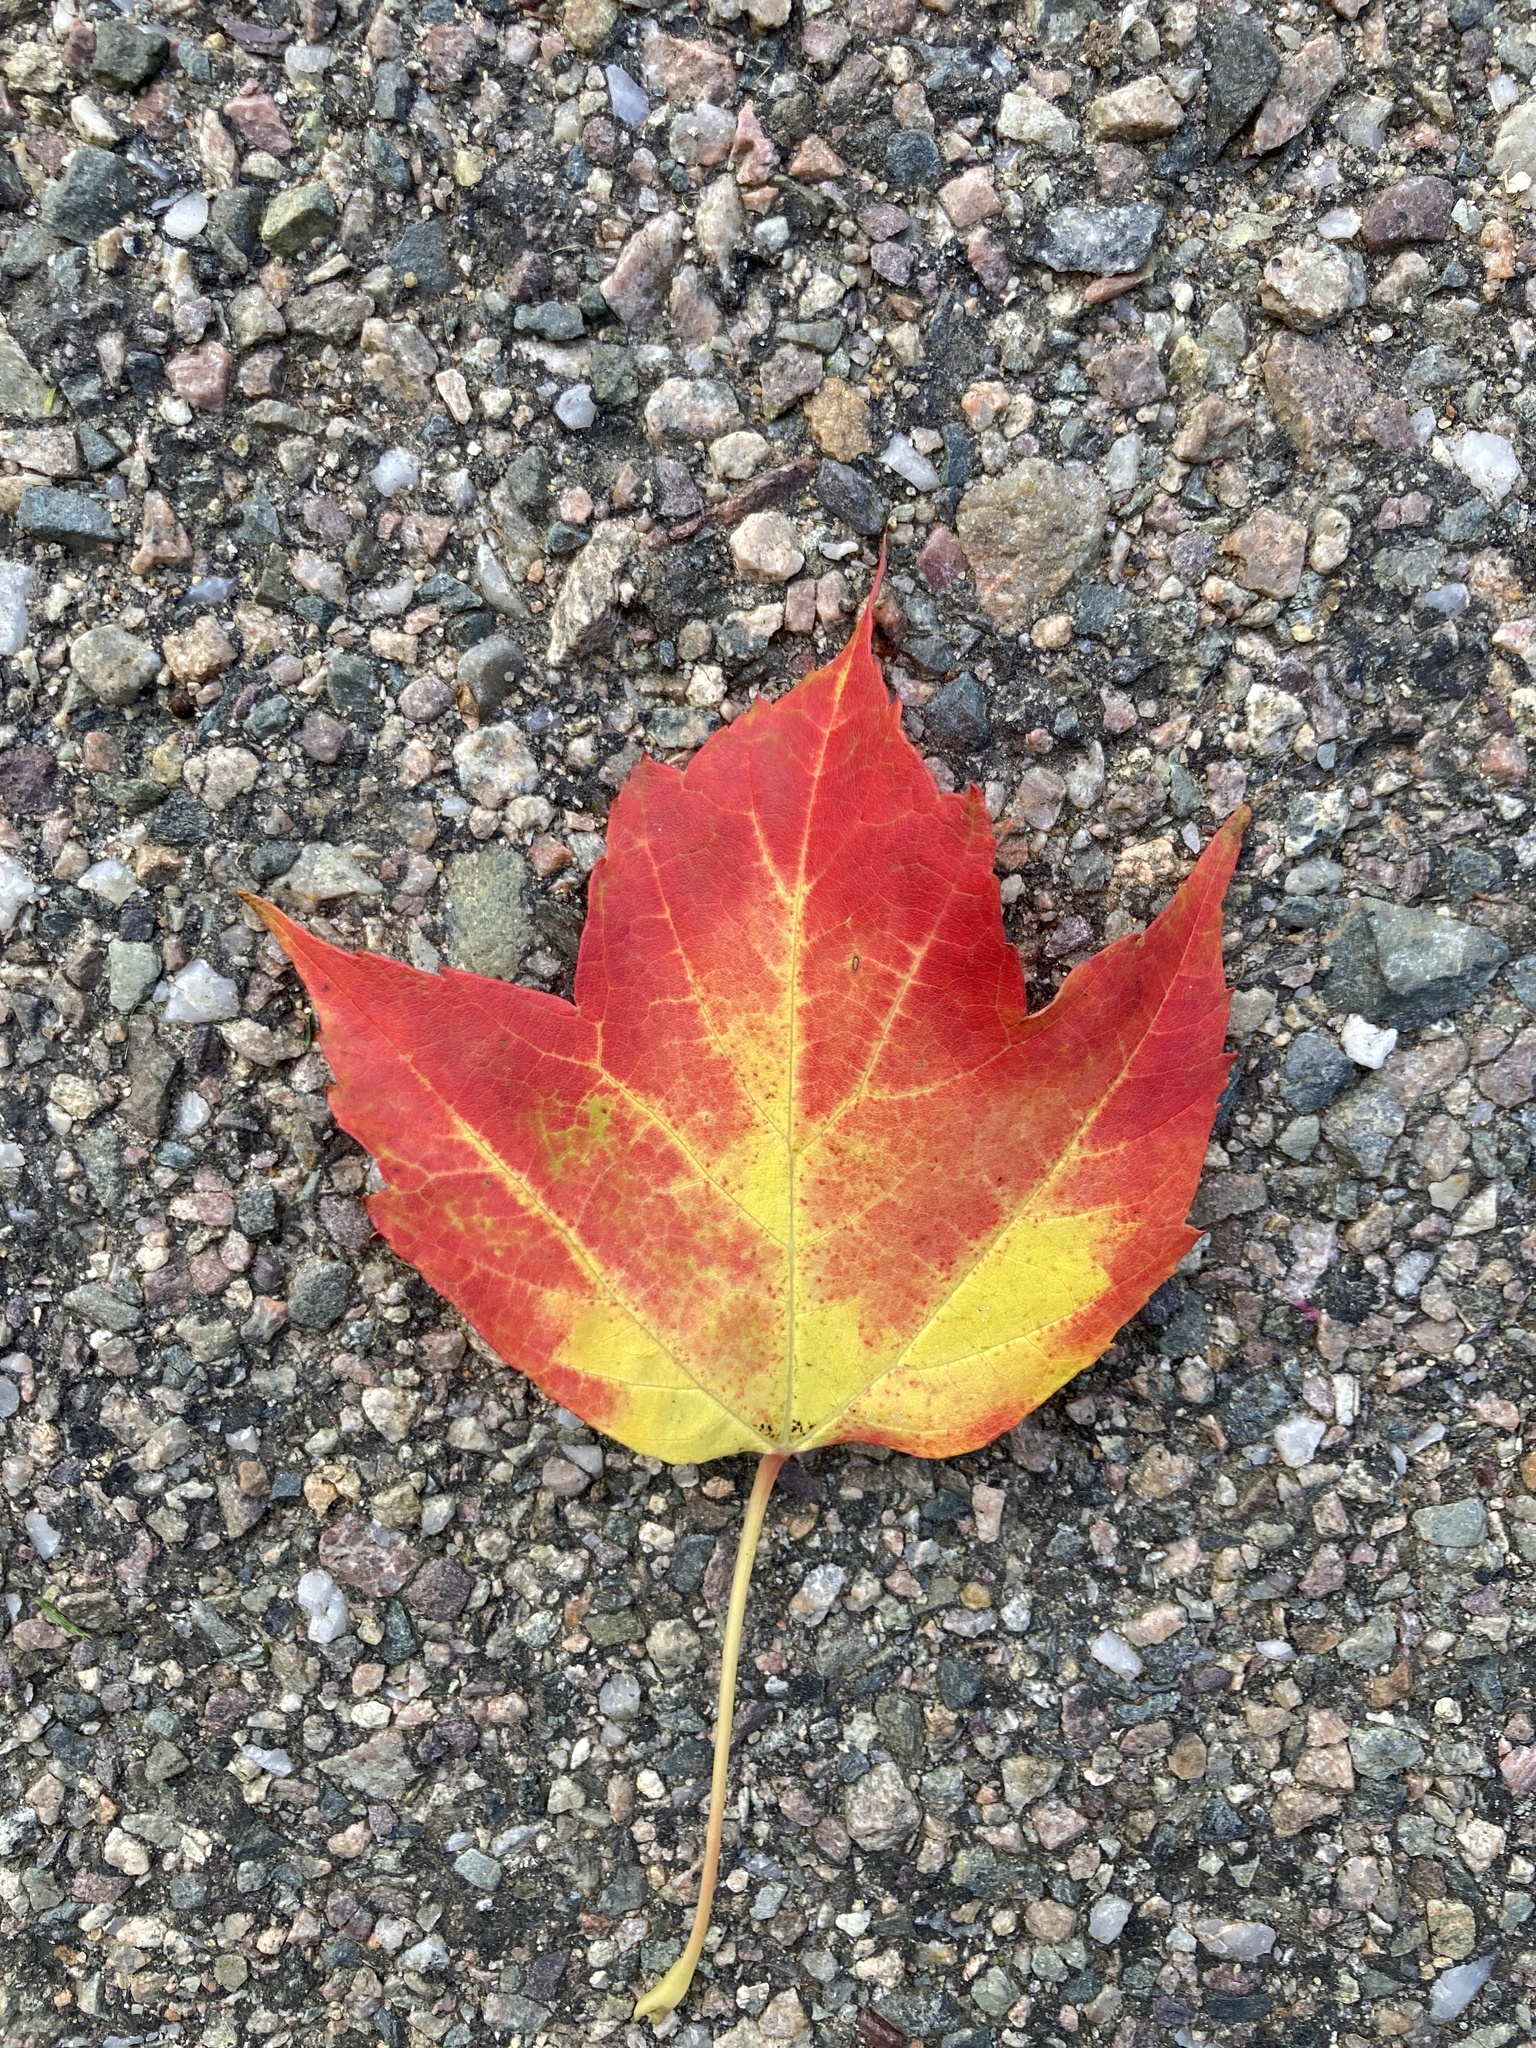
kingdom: Plantae
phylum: Tracheophyta
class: Magnoliopsida
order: Sapindales
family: Sapindaceae
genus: Acer
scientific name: Acer rubrum
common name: Red maple
